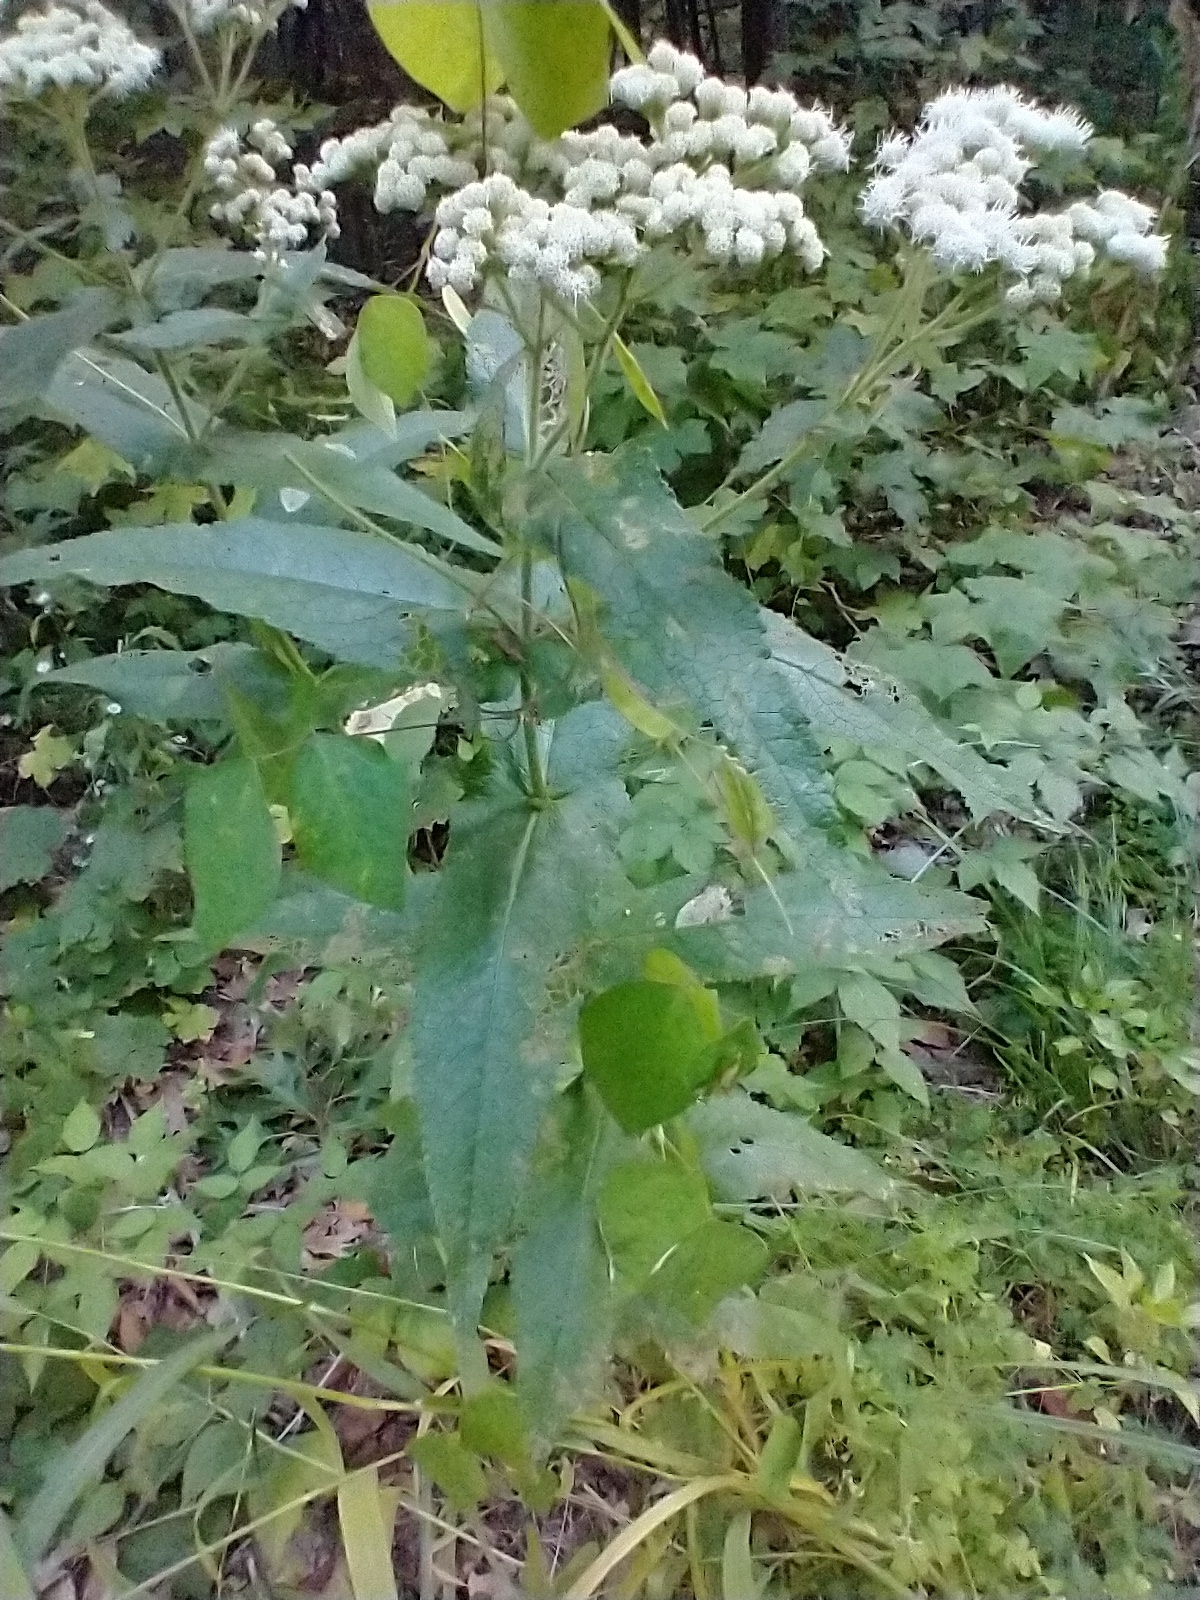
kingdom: Plantae
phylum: Tracheophyta
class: Magnoliopsida
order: Asterales
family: Asteraceae
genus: Eupatorium
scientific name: Eupatorium perfoliatum
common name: Boneset
